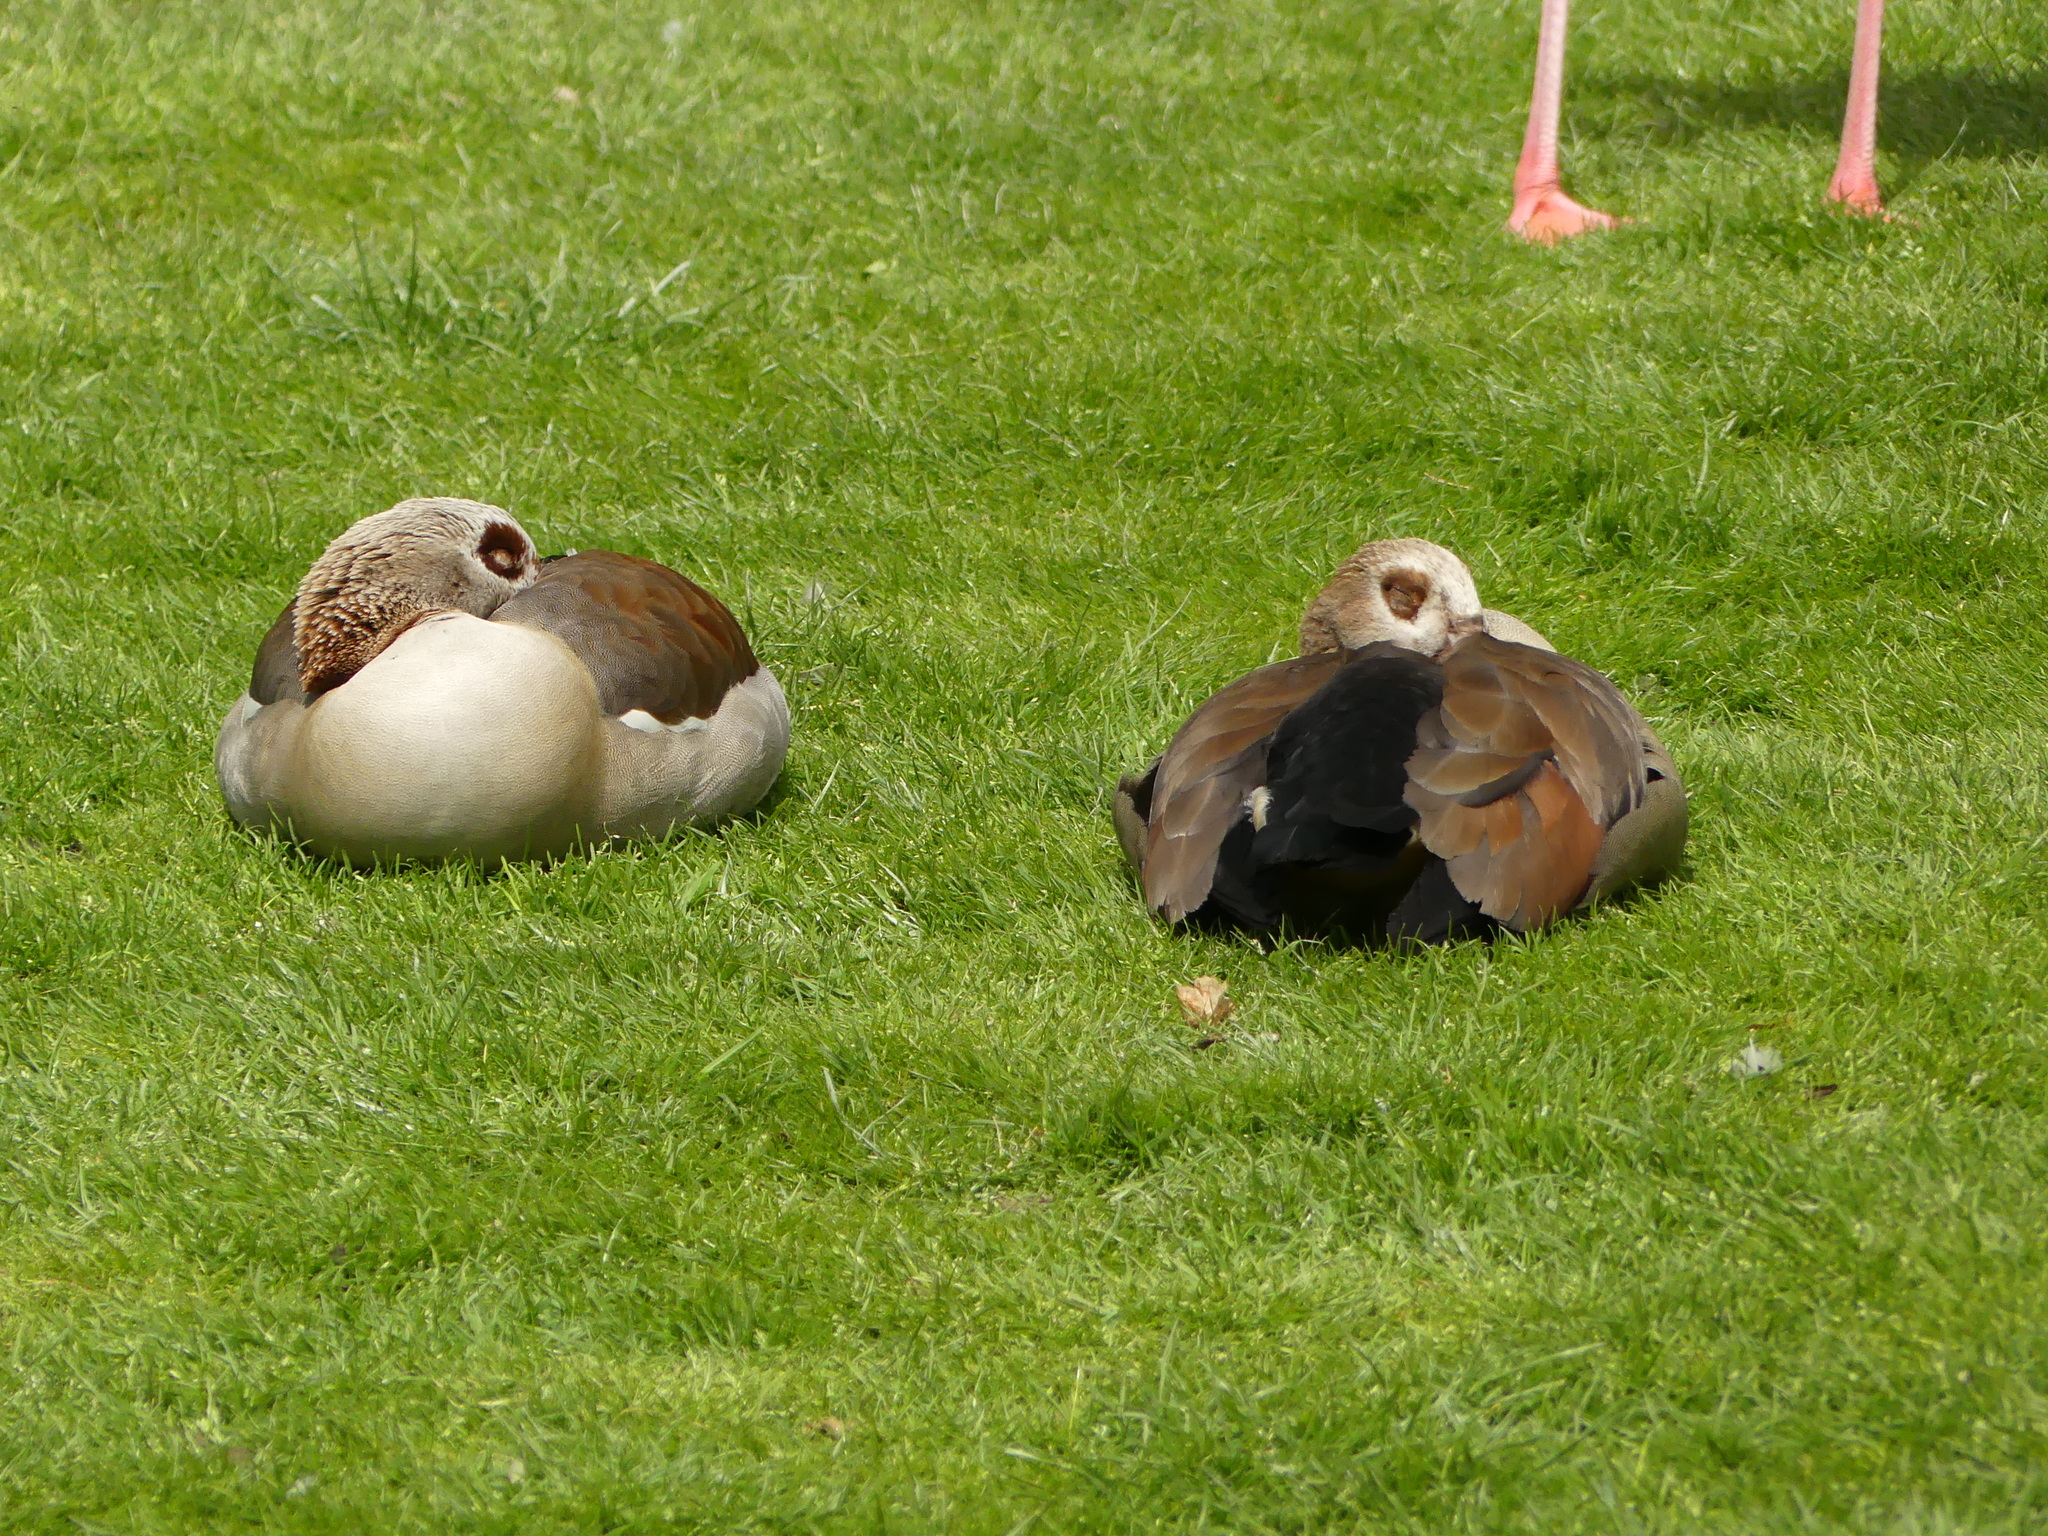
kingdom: Animalia
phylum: Chordata
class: Aves
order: Anseriformes
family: Anatidae
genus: Alopochen
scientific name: Alopochen aegyptiaca
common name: Egyptian goose
